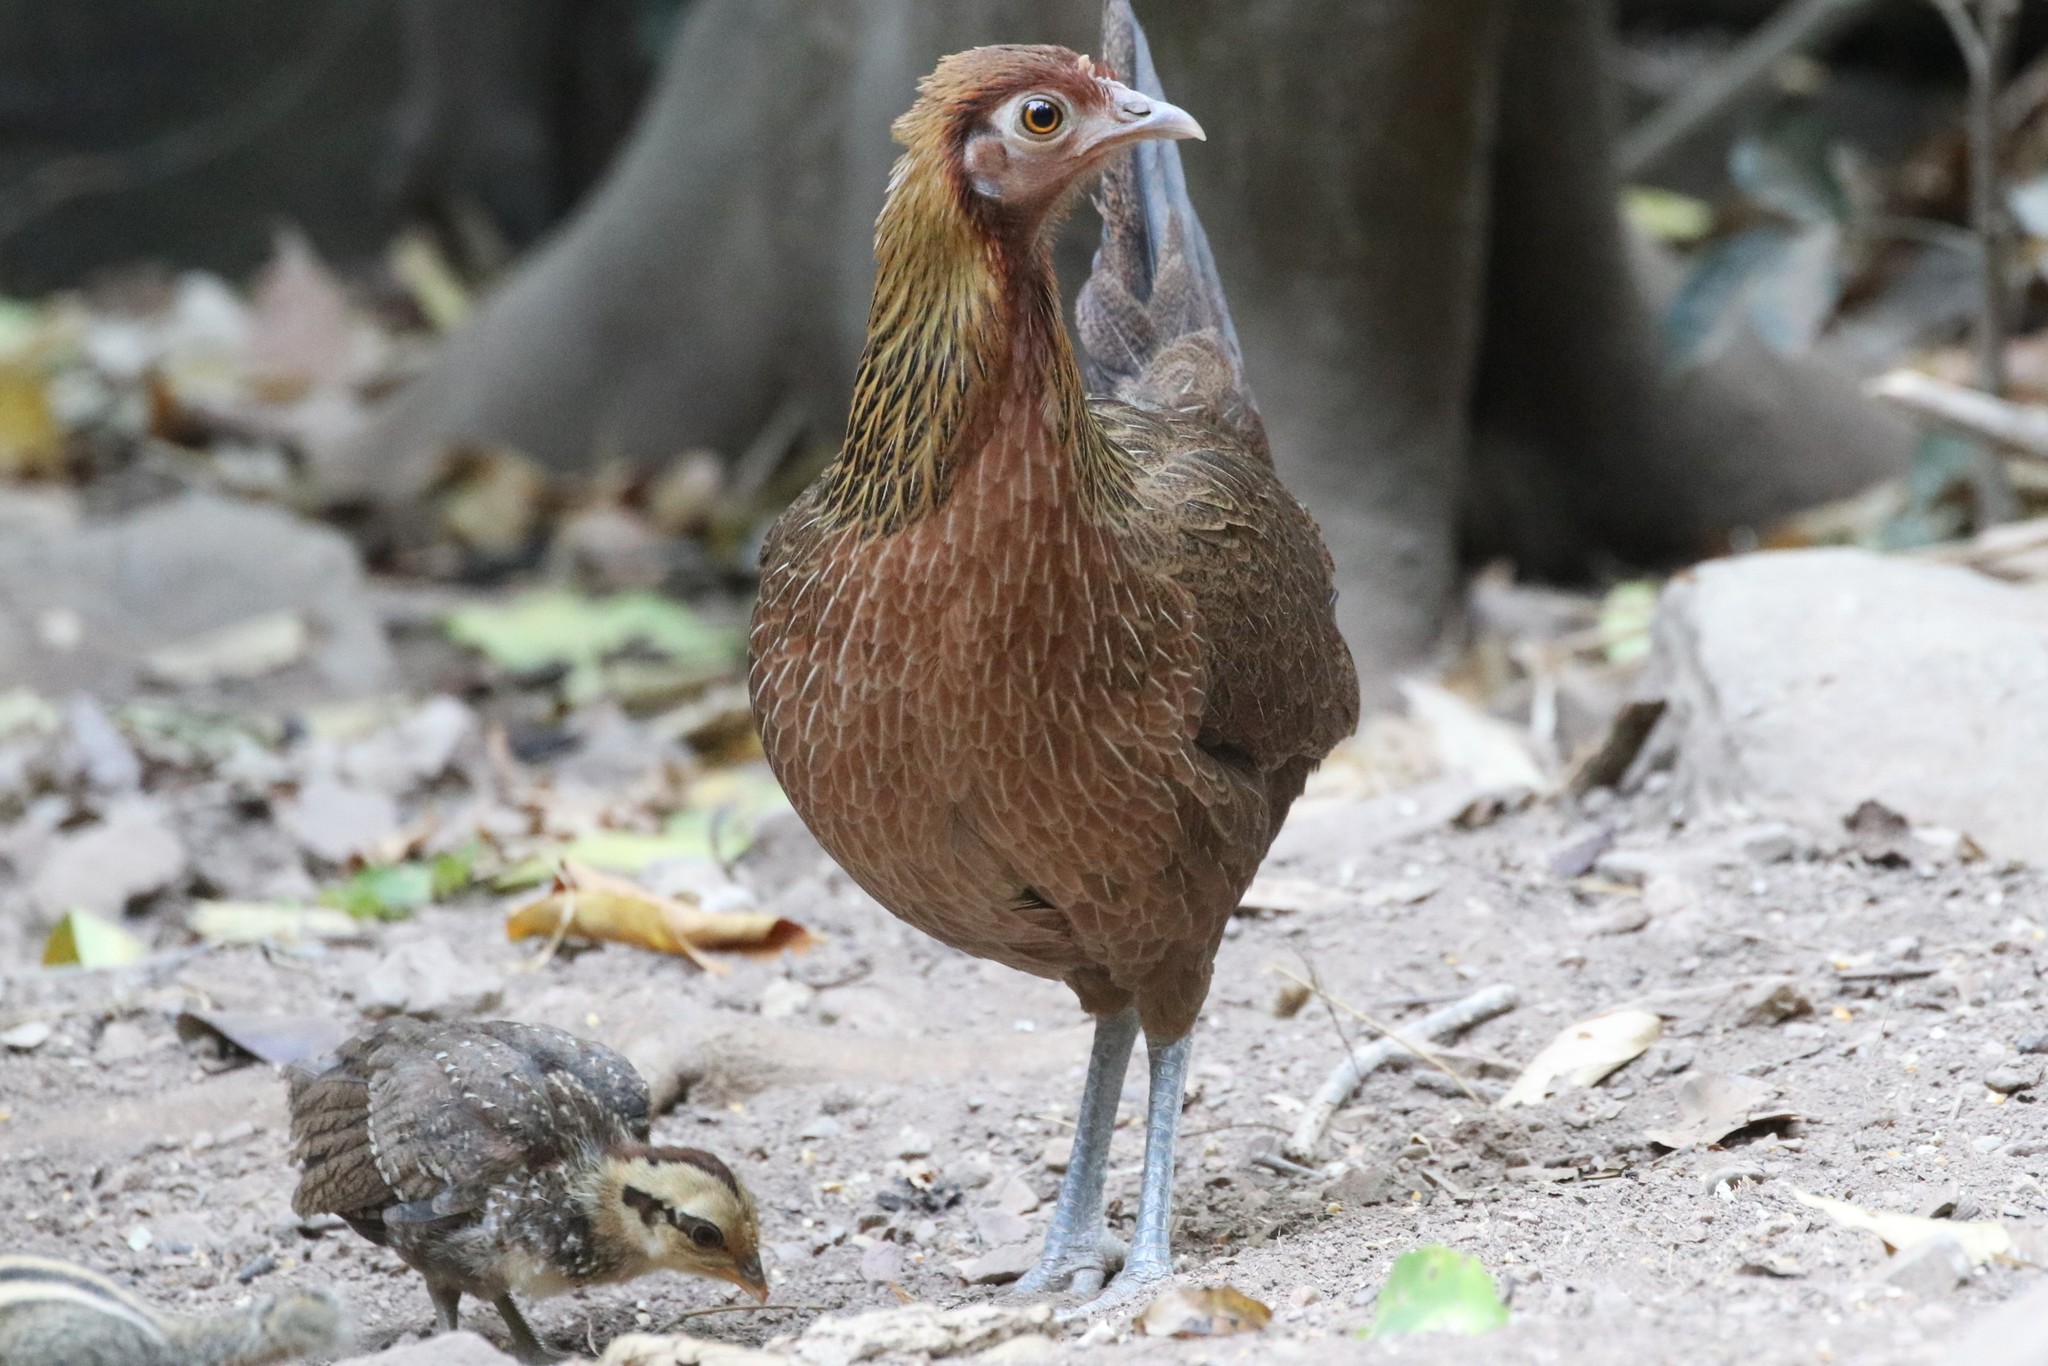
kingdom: Animalia
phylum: Chordata
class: Aves
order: Galliformes
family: Phasianidae
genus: Gallus
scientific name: Gallus gallus
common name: Red junglefowl
